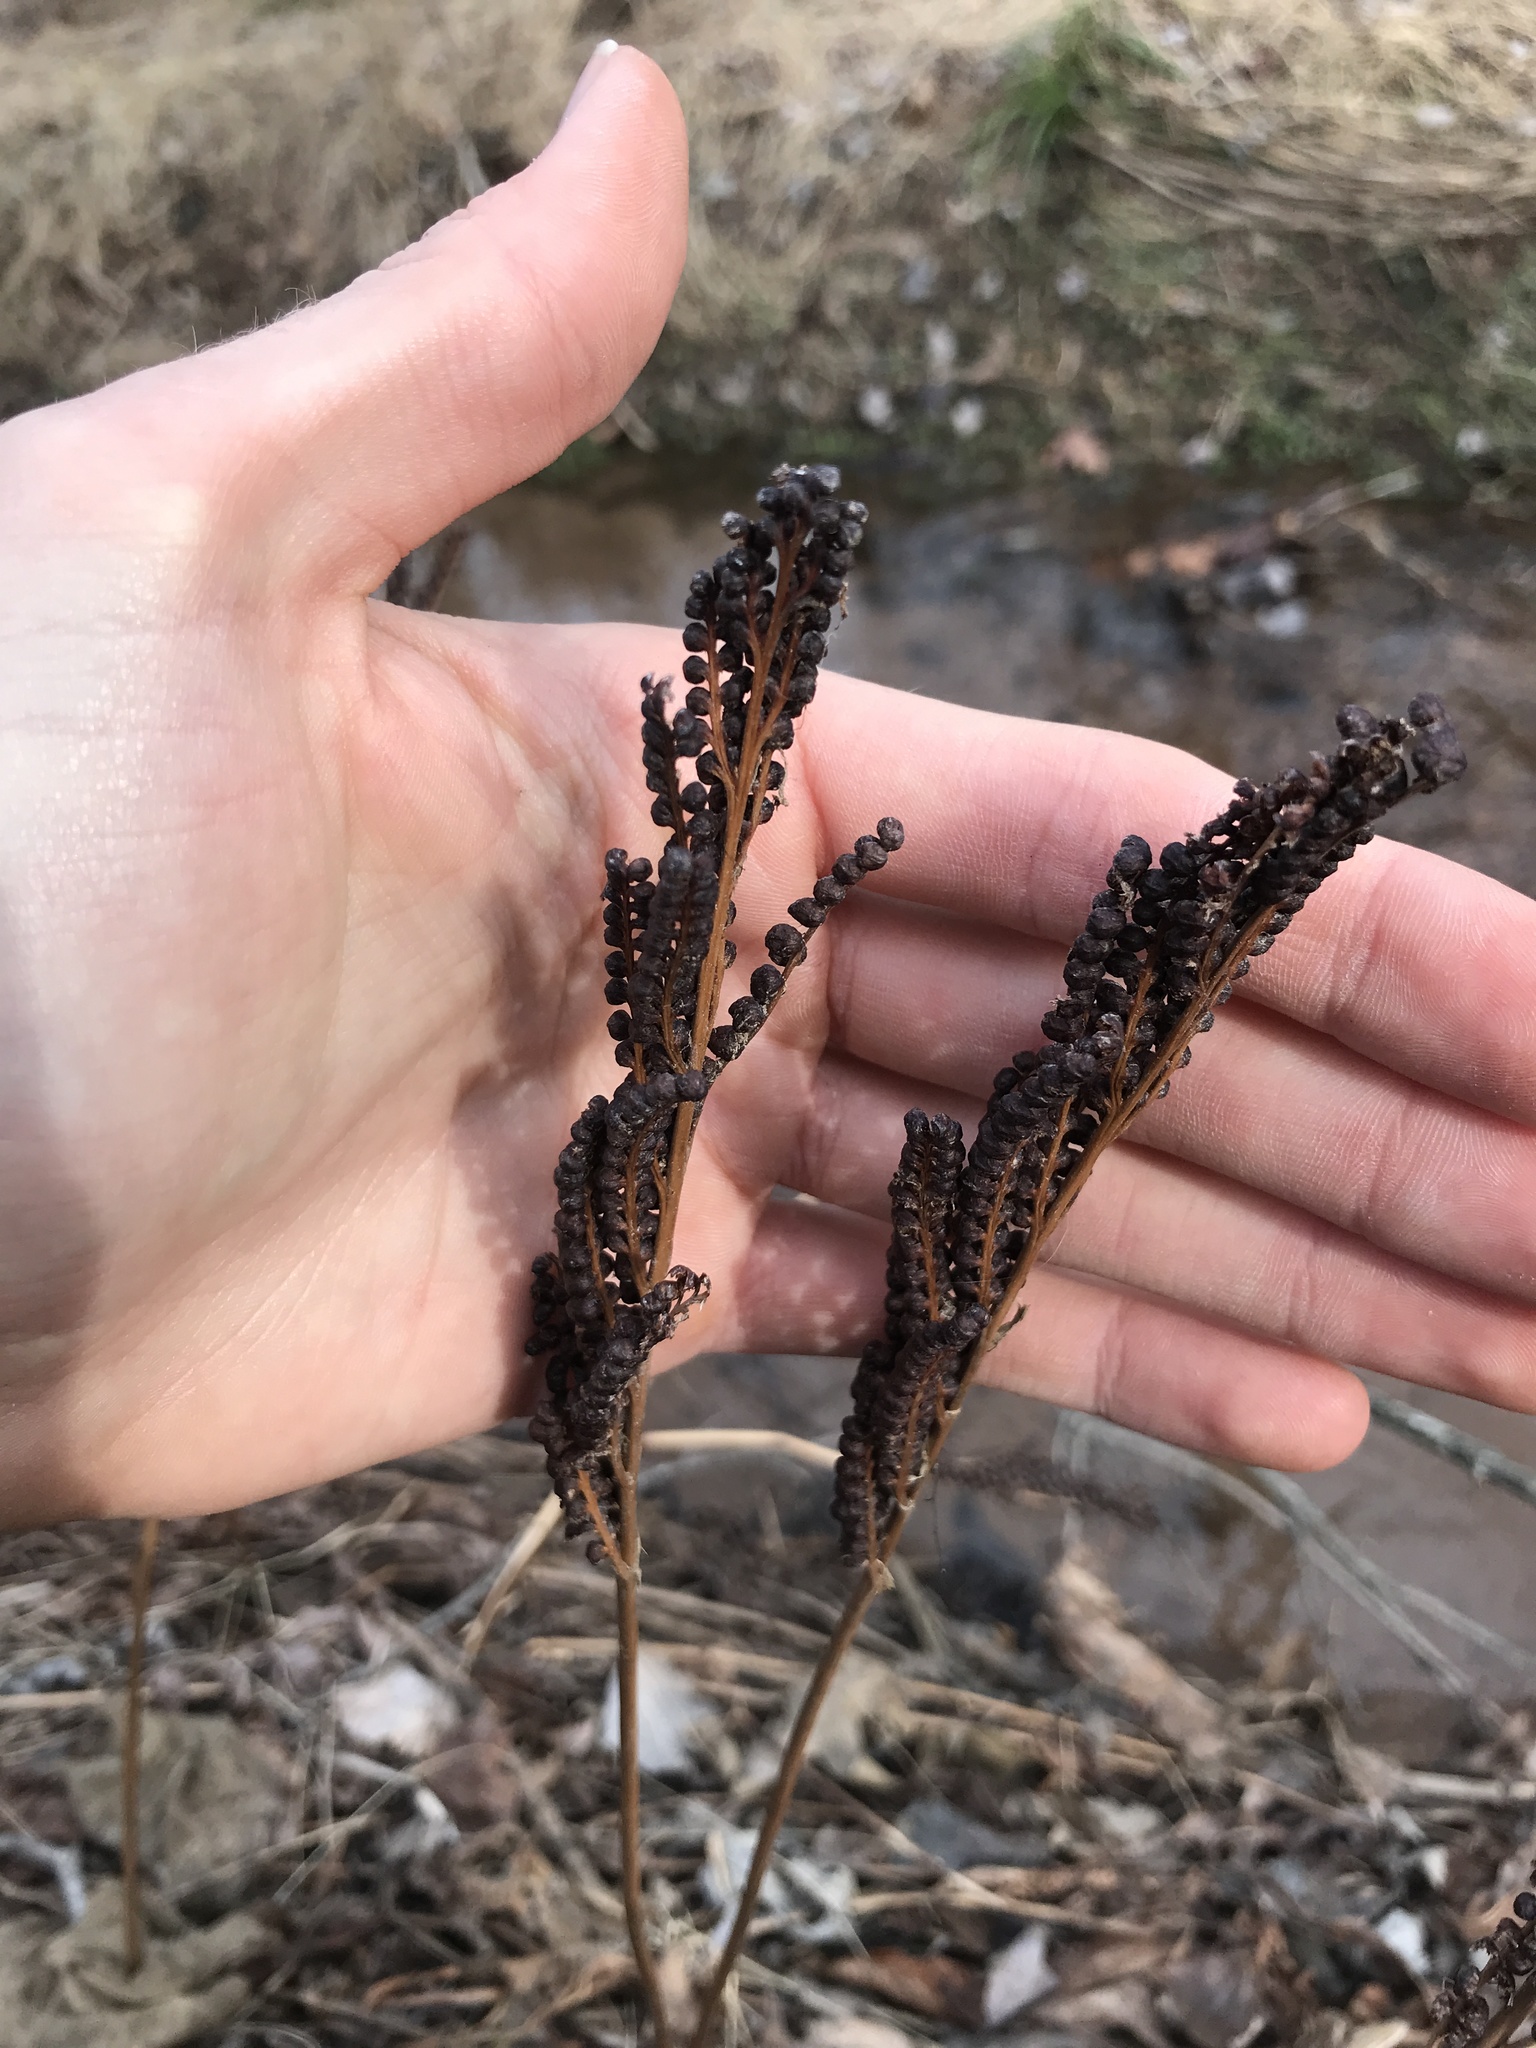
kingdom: Plantae
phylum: Tracheophyta
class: Polypodiopsida
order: Polypodiales
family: Onocleaceae
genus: Onoclea
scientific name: Onoclea sensibilis
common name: Sensitive fern
